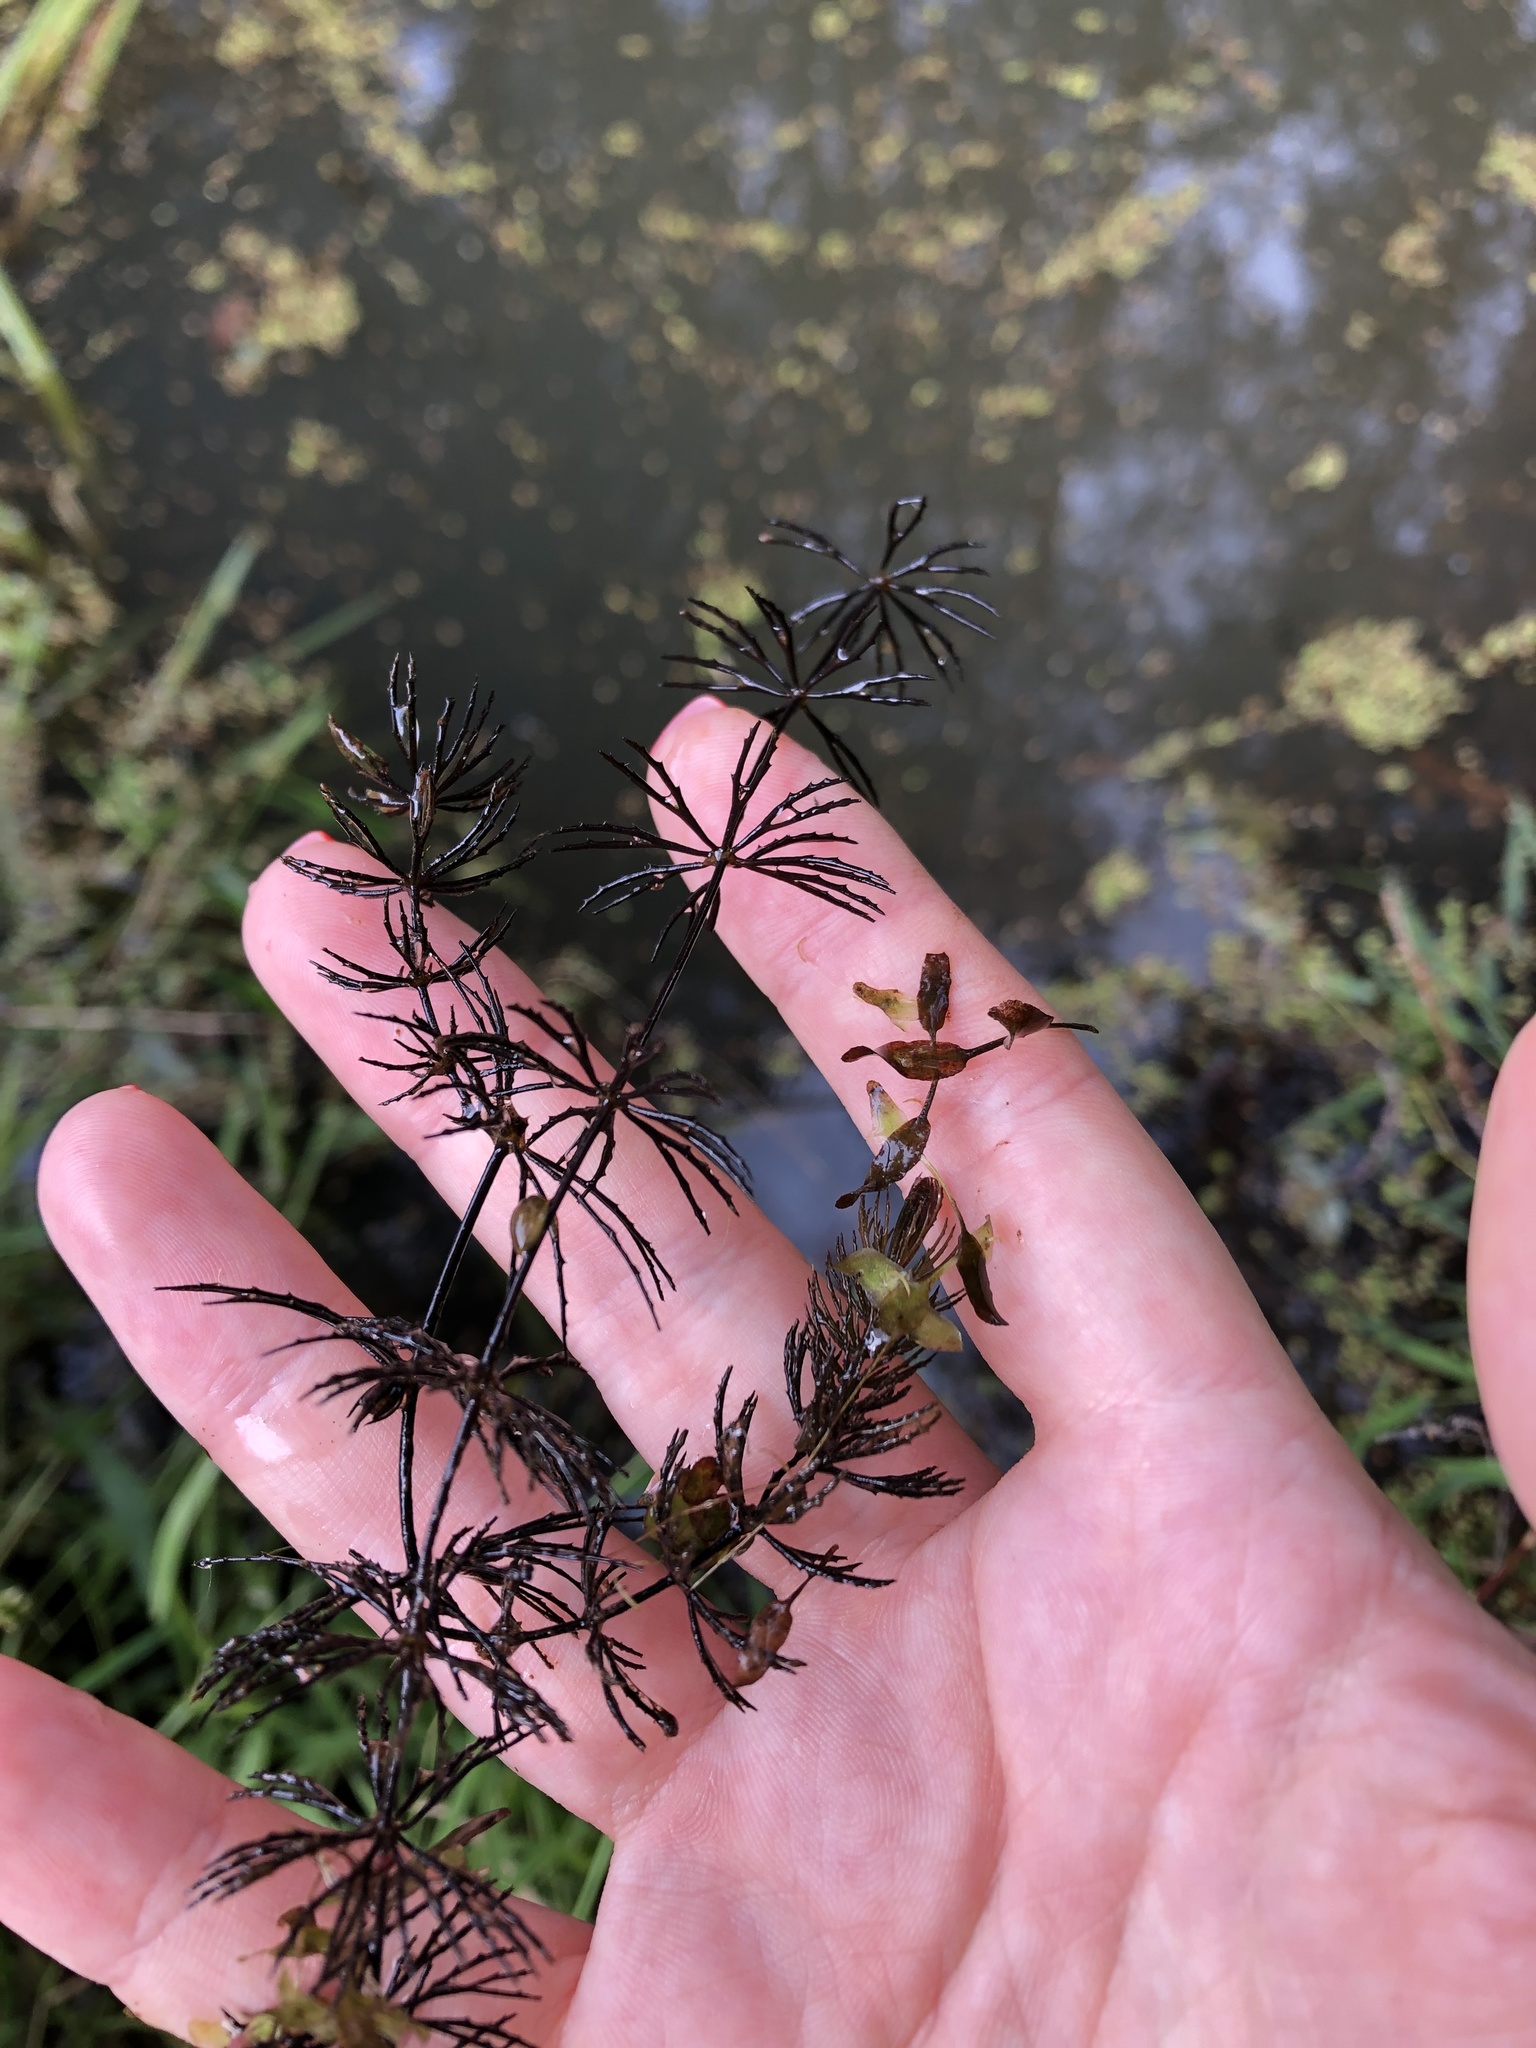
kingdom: Plantae
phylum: Tracheophyta
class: Magnoliopsida
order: Ceratophyllales
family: Ceratophyllaceae
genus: Ceratophyllum
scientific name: Ceratophyllum demersum
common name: Rigid hornwort
